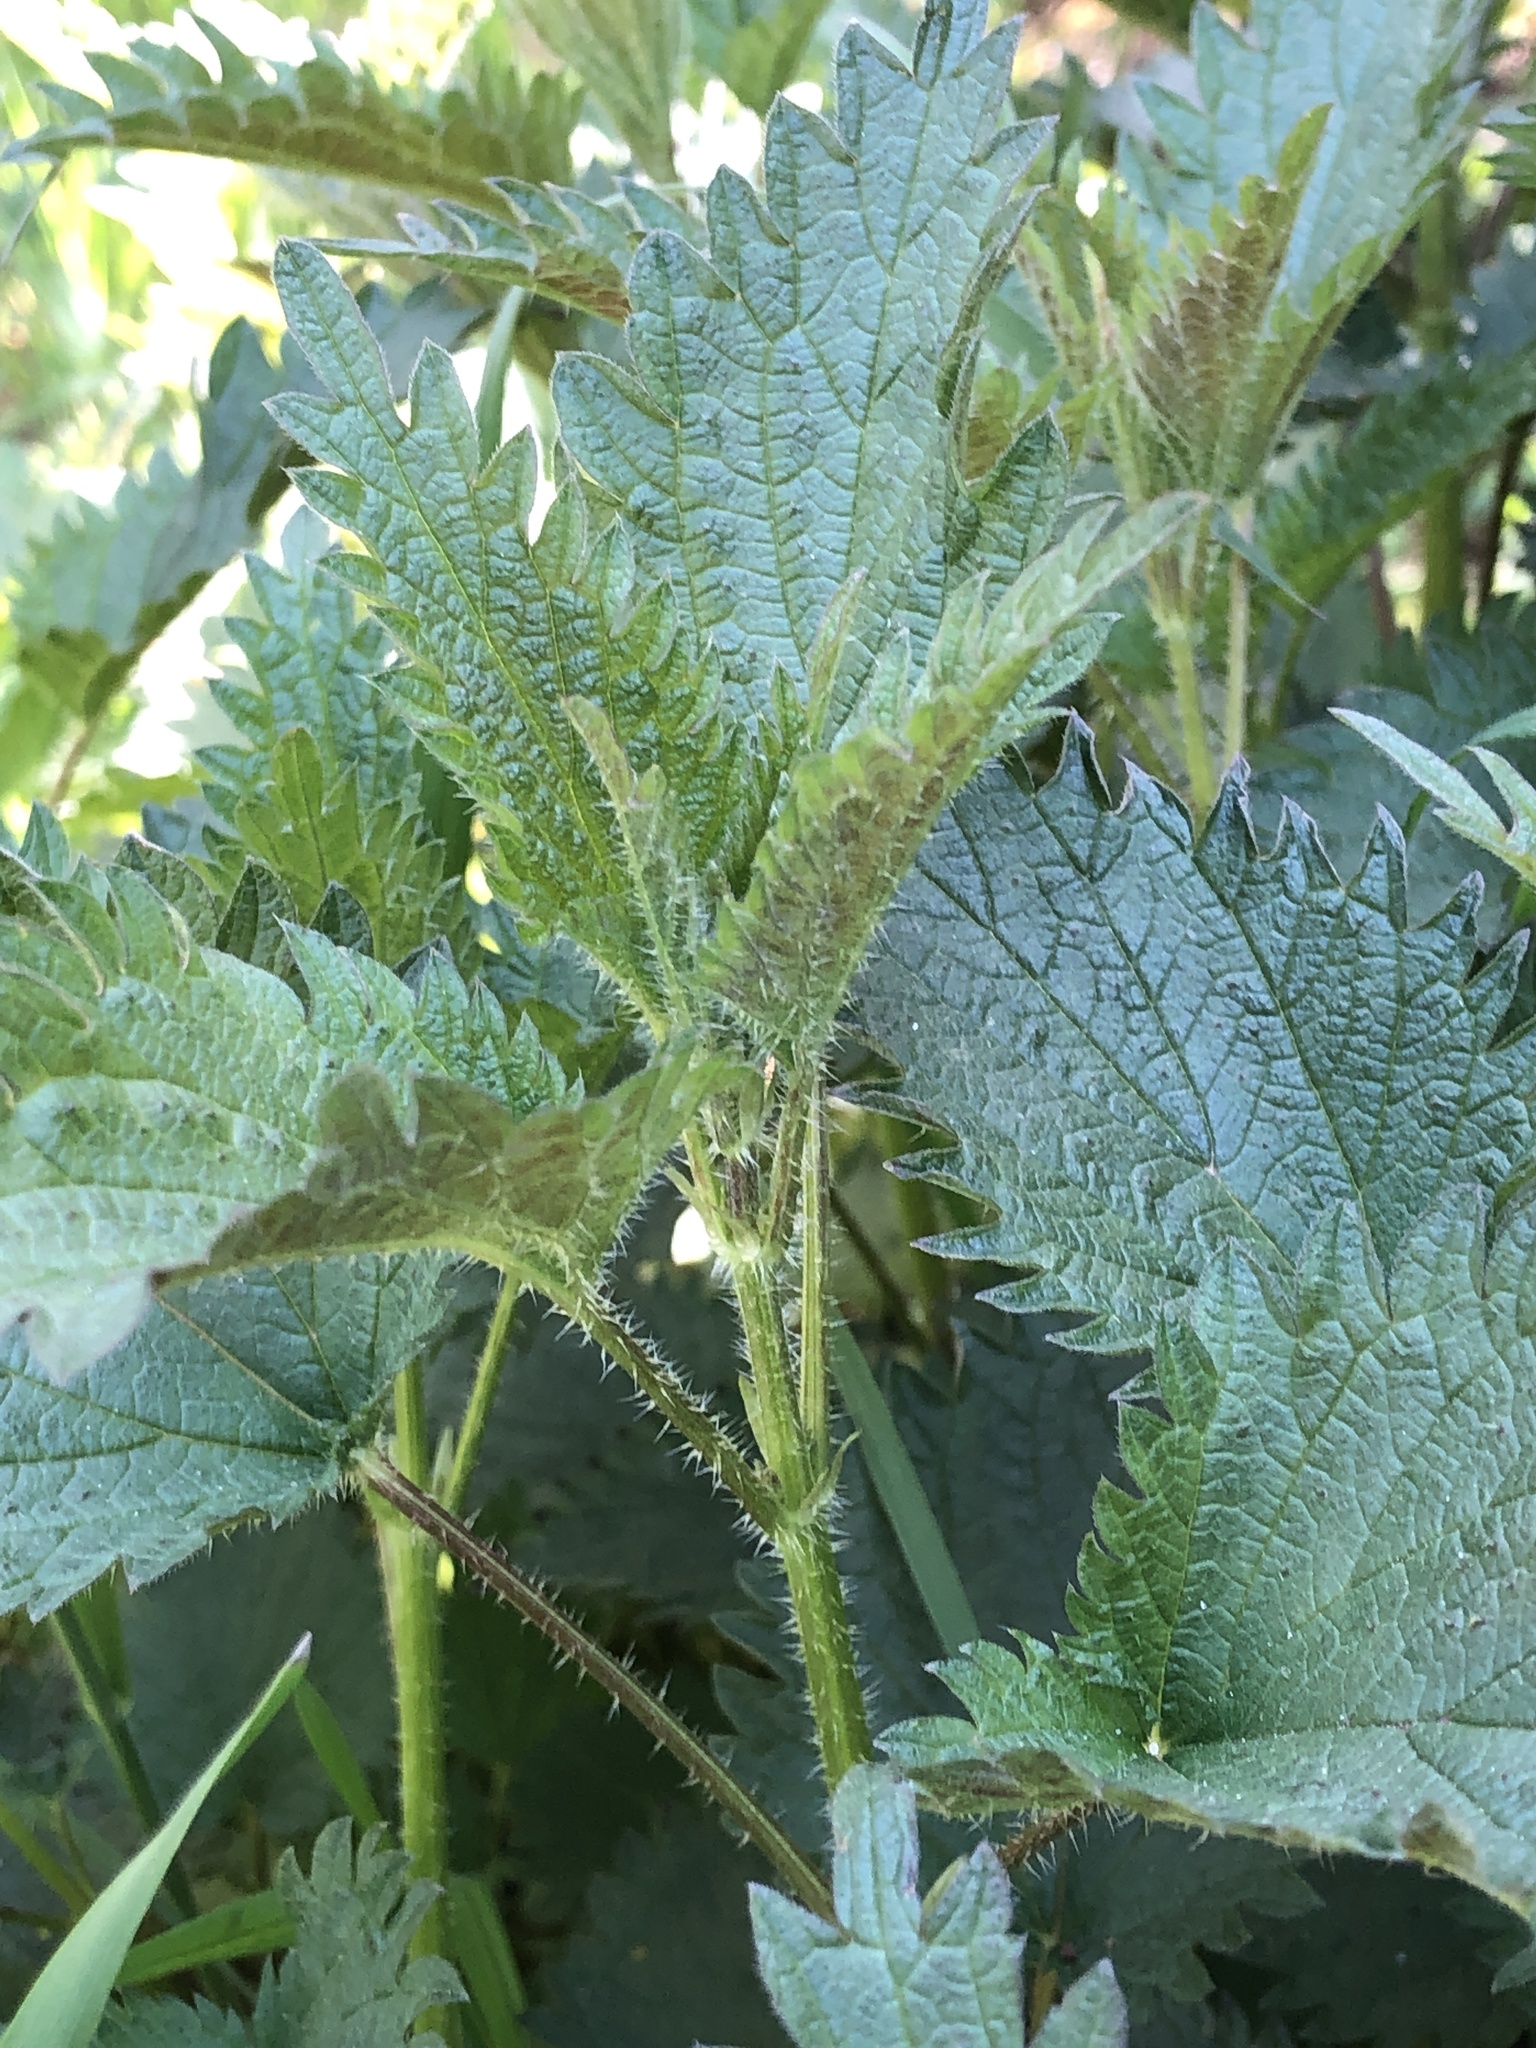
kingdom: Plantae
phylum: Tracheophyta
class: Magnoliopsida
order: Rosales
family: Urticaceae
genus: Urtica
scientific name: Urtica dioica
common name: Common nettle
